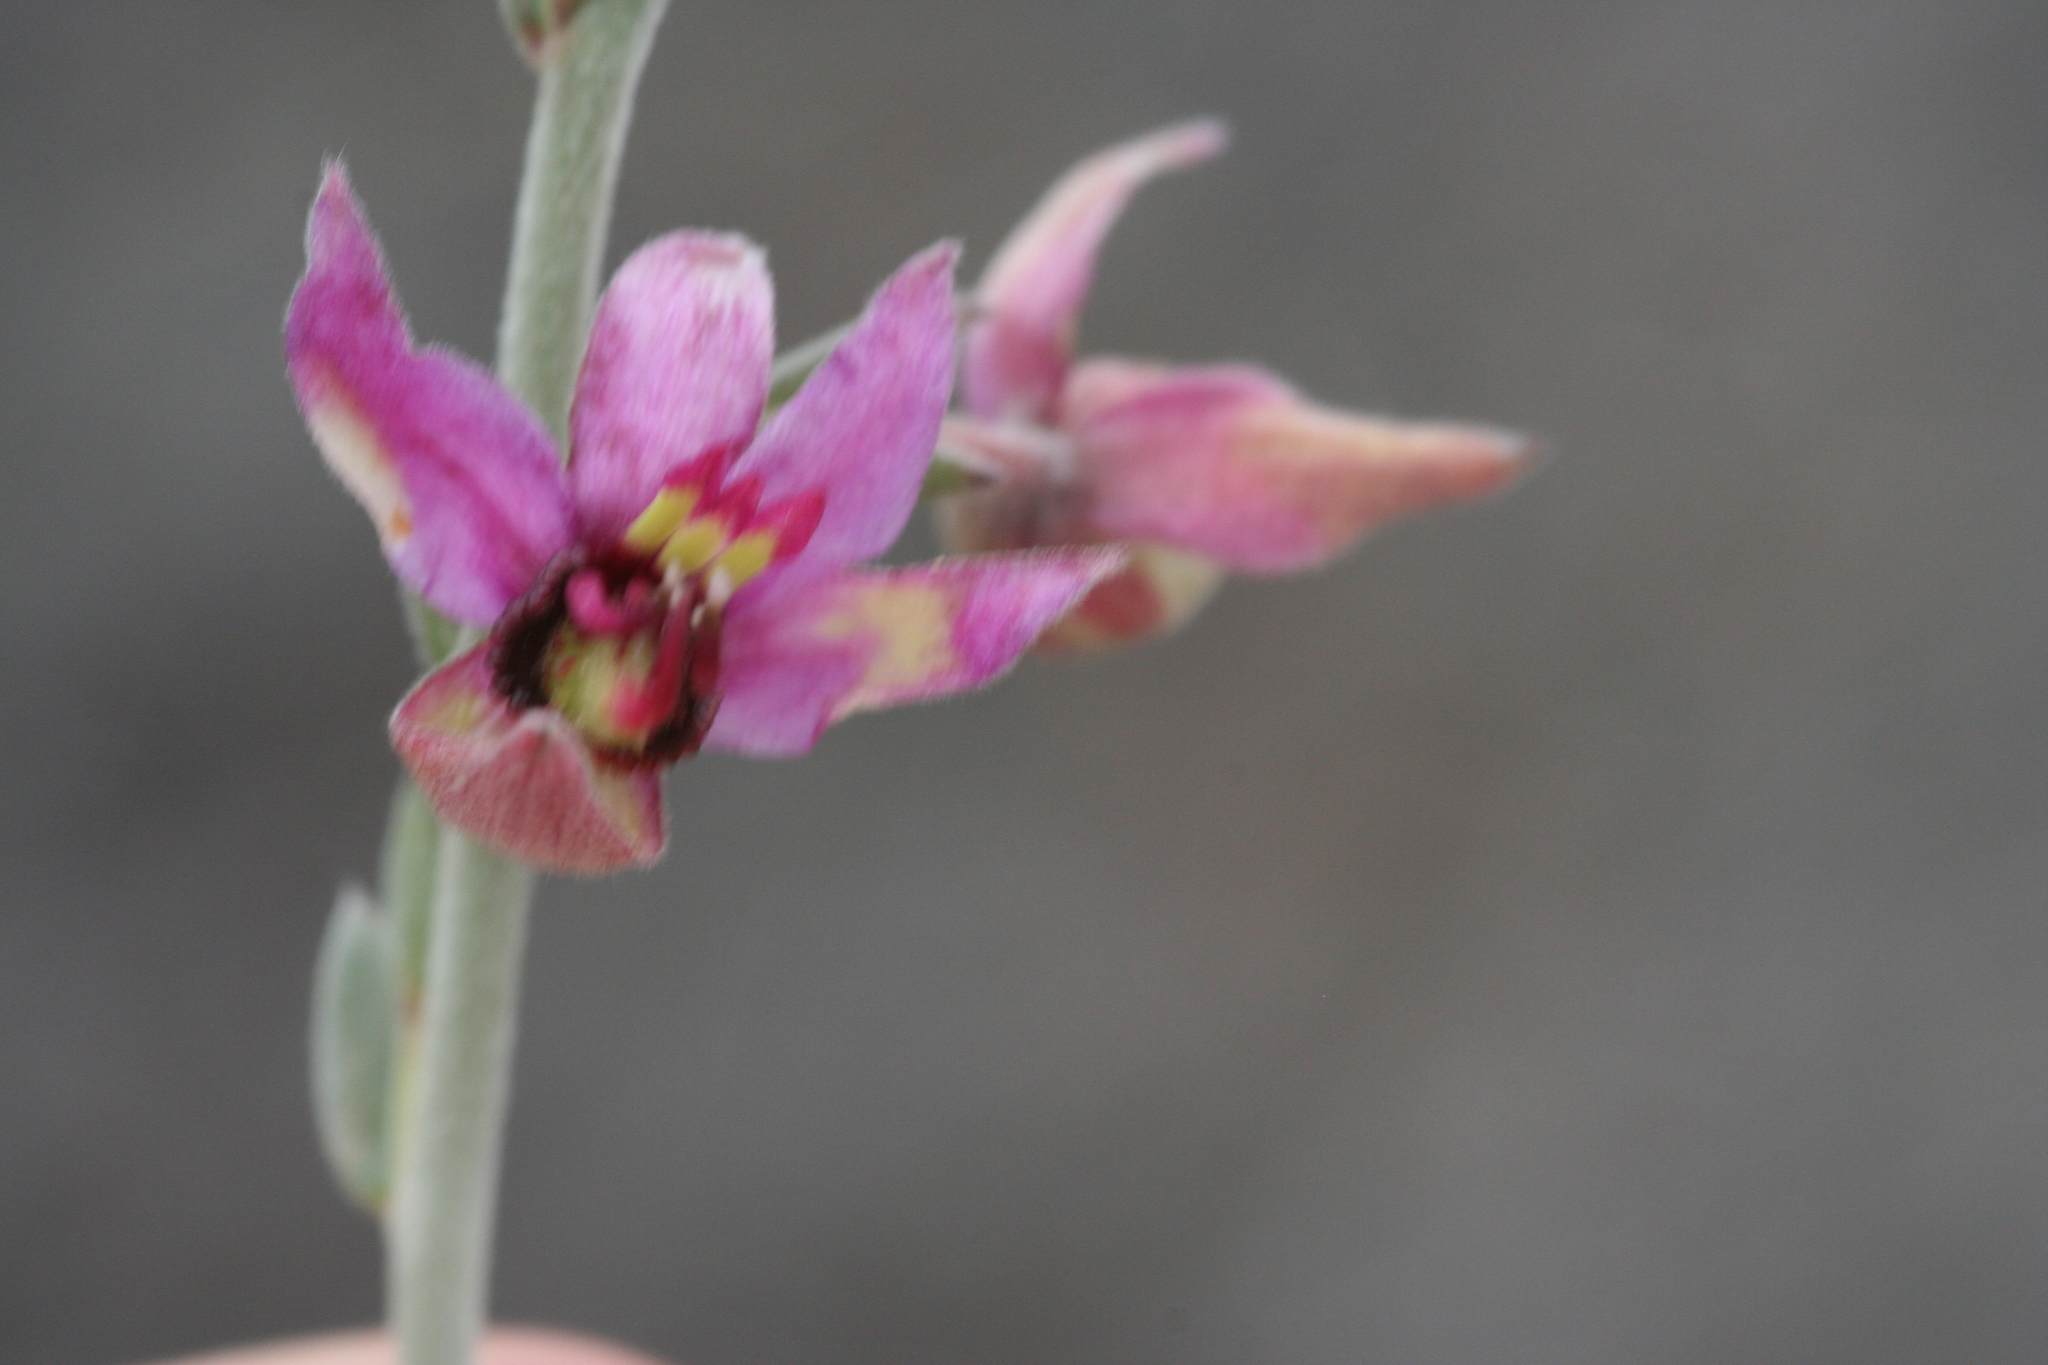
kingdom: Plantae
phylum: Tracheophyta
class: Magnoliopsida
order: Zygophyllales
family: Krameriaceae
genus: Krameria
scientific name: Krameria bicolor
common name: White ratany
